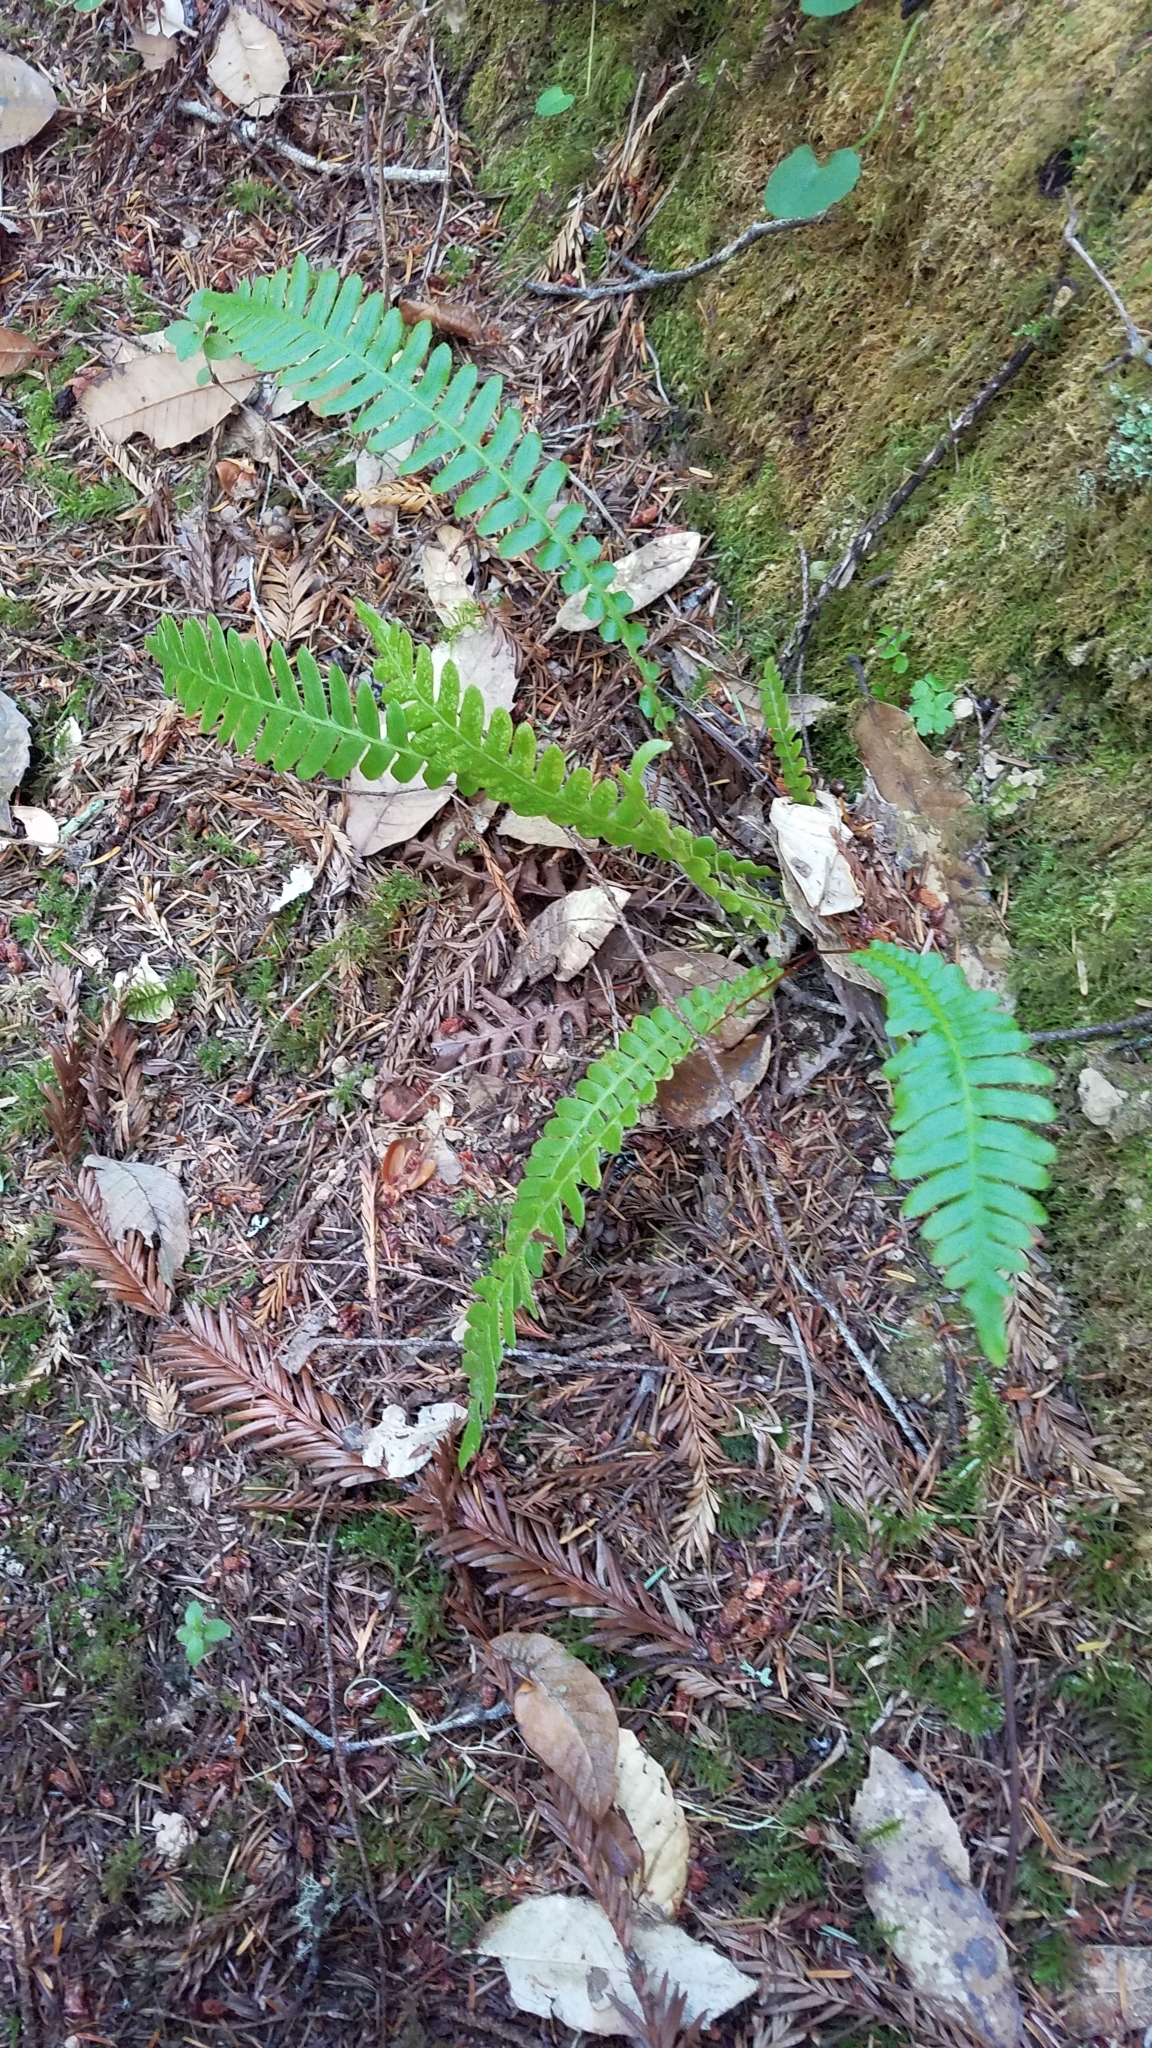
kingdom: Plantae
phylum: Tracheophyta
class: Polypodiopsida
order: Polypodiales
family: Blechnaceae
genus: Struthiopteris
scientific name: Struthiopteris spicant
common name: Deer fern
